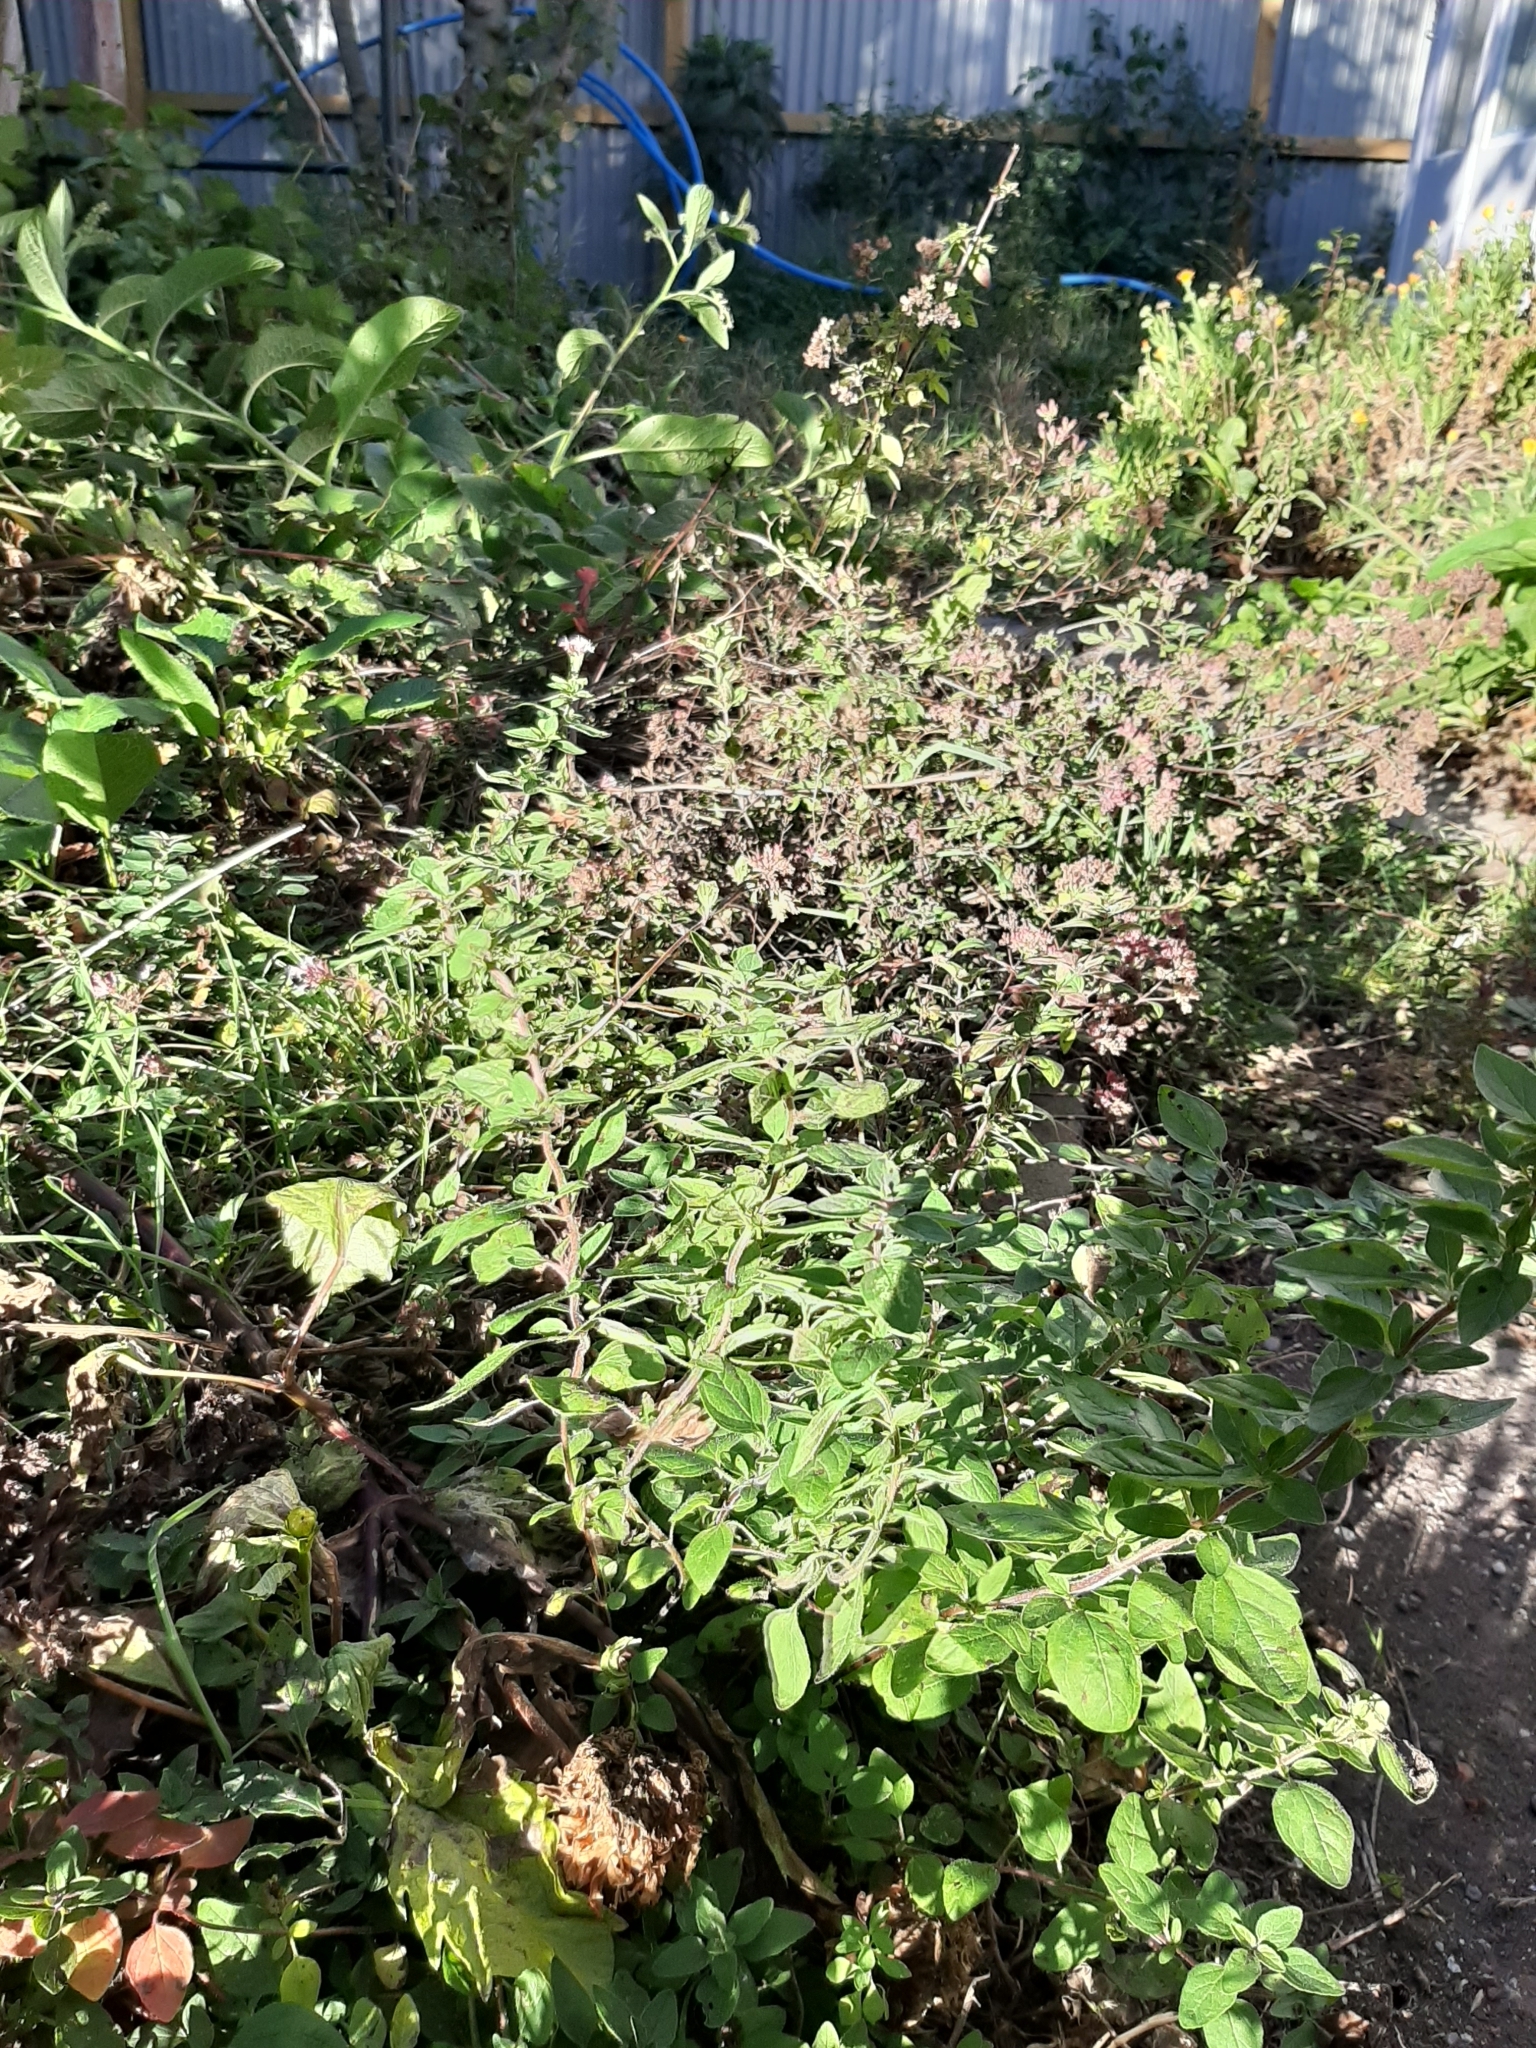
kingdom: Plantae
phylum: Tracheophyta
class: Magnoliopsida
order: Lamiales
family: Lamiaceae
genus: Origanum
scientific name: Origanum majorana
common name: Sweet marjoram
